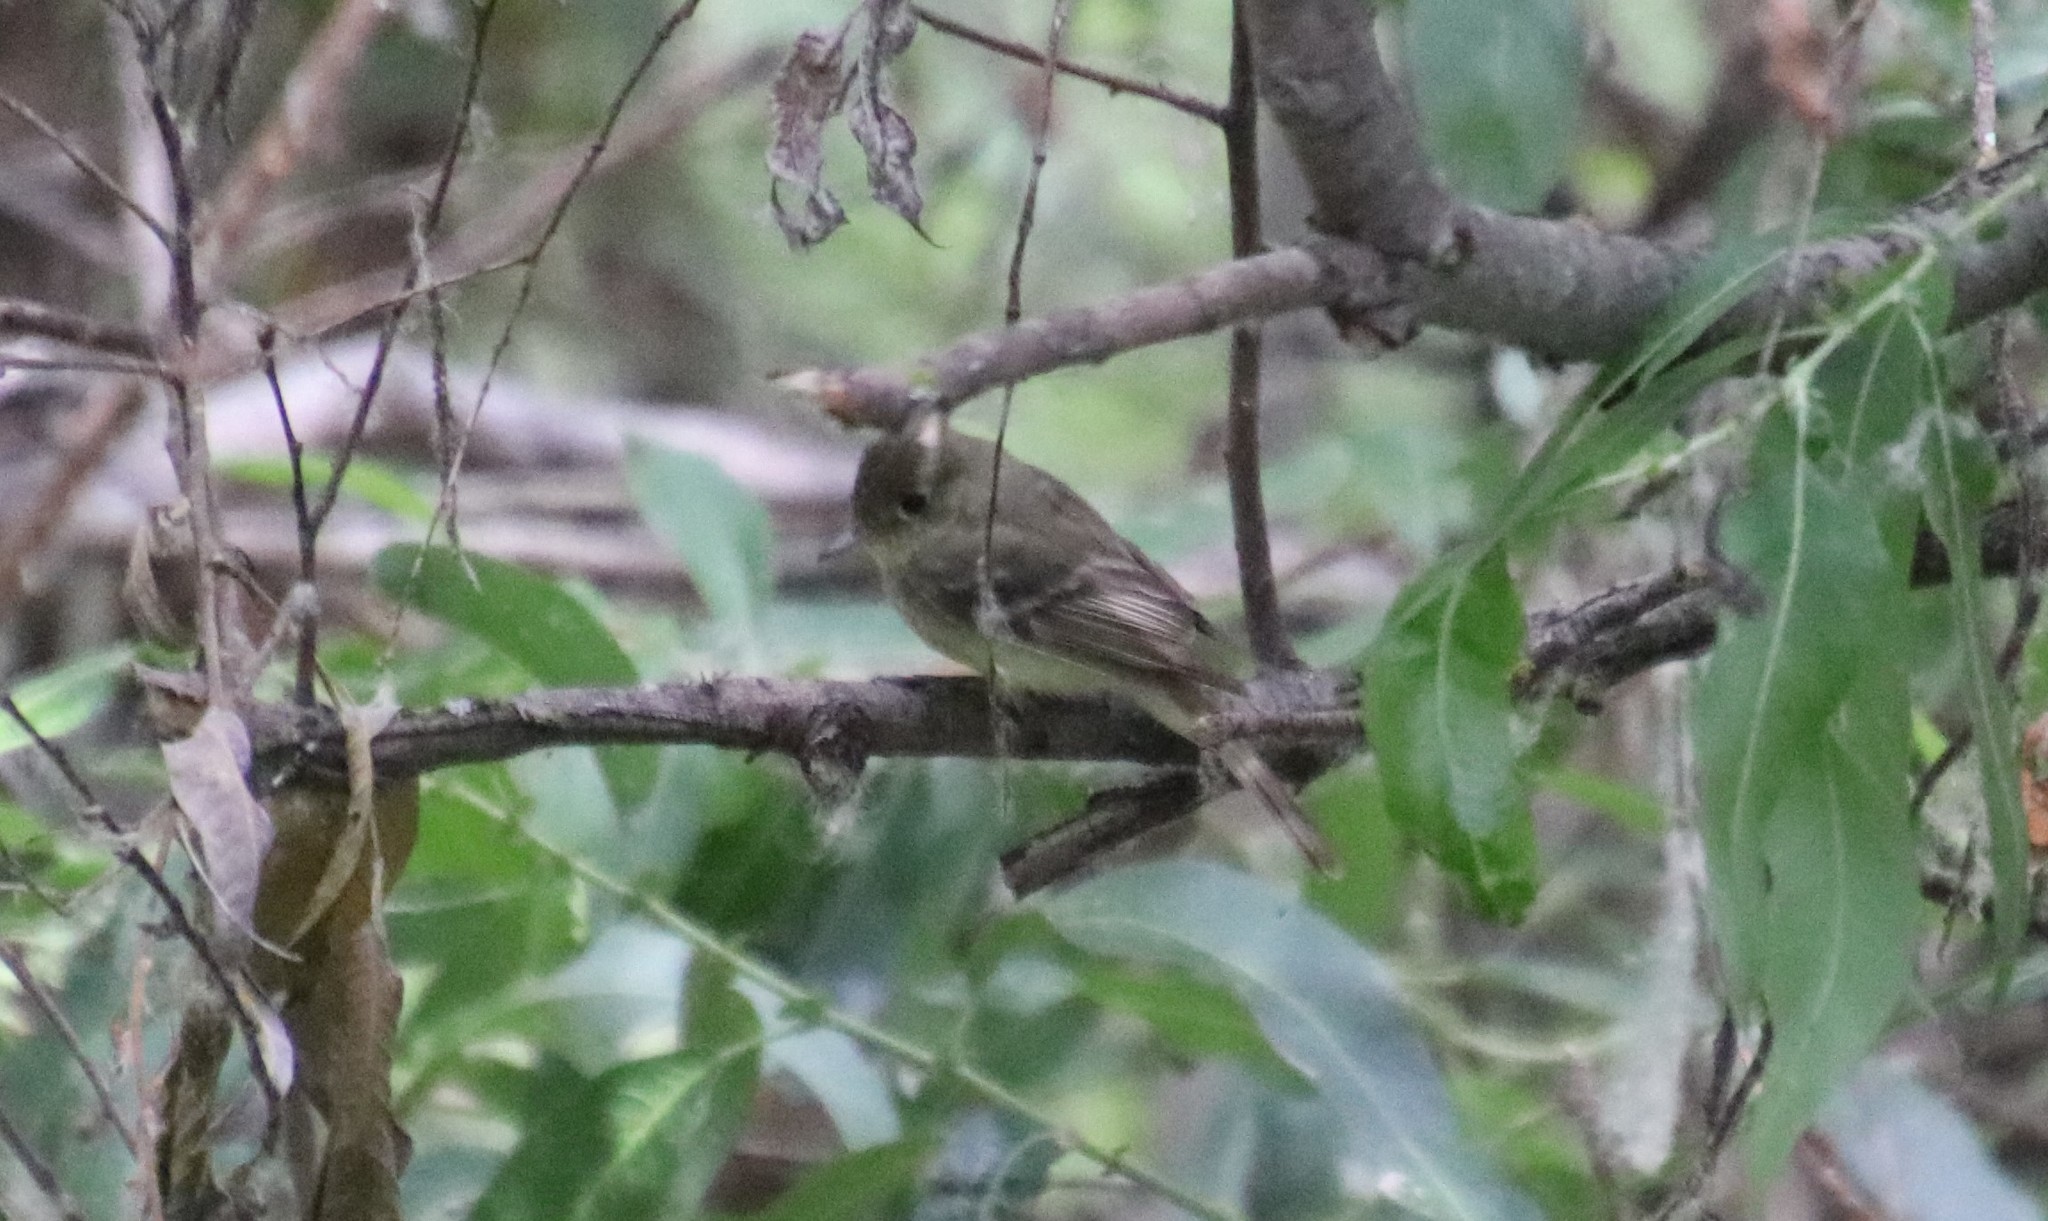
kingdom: Animalia
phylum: Chordata
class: Aves
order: Passeriformes
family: Tyrannidae
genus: Empidonax
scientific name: Empidonax difficilis
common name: Pacific-slope flycatcher
